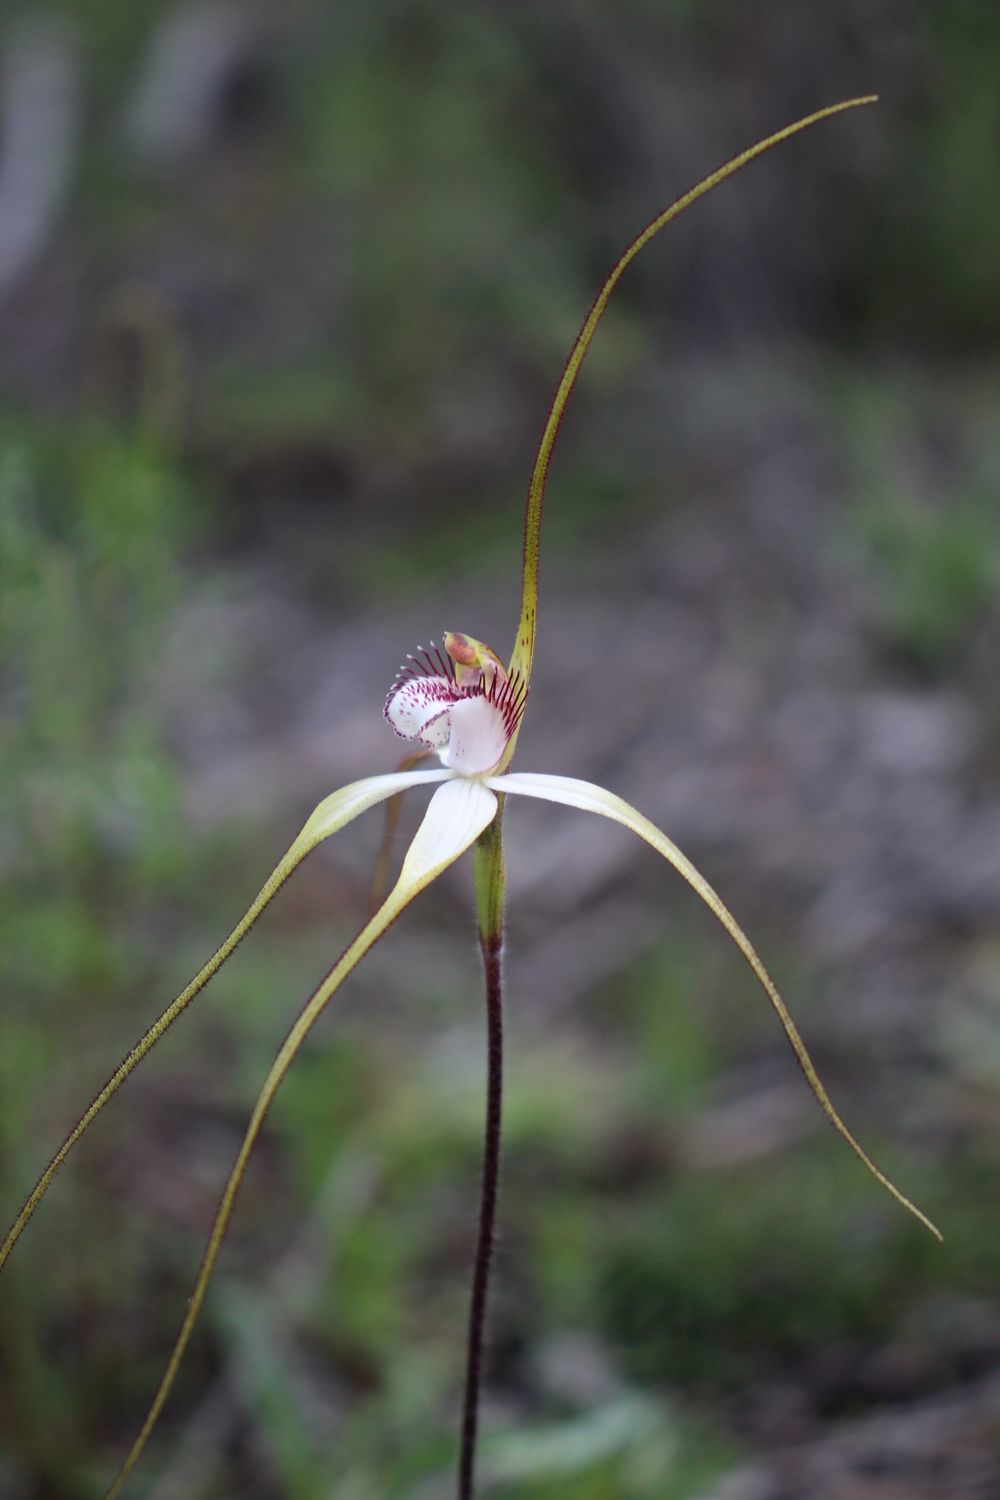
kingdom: Plantae
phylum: Tracheophyta
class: Liliopsida
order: Asparagales
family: Orchidaceae
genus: Caladenia
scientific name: Caladenia longicauda
